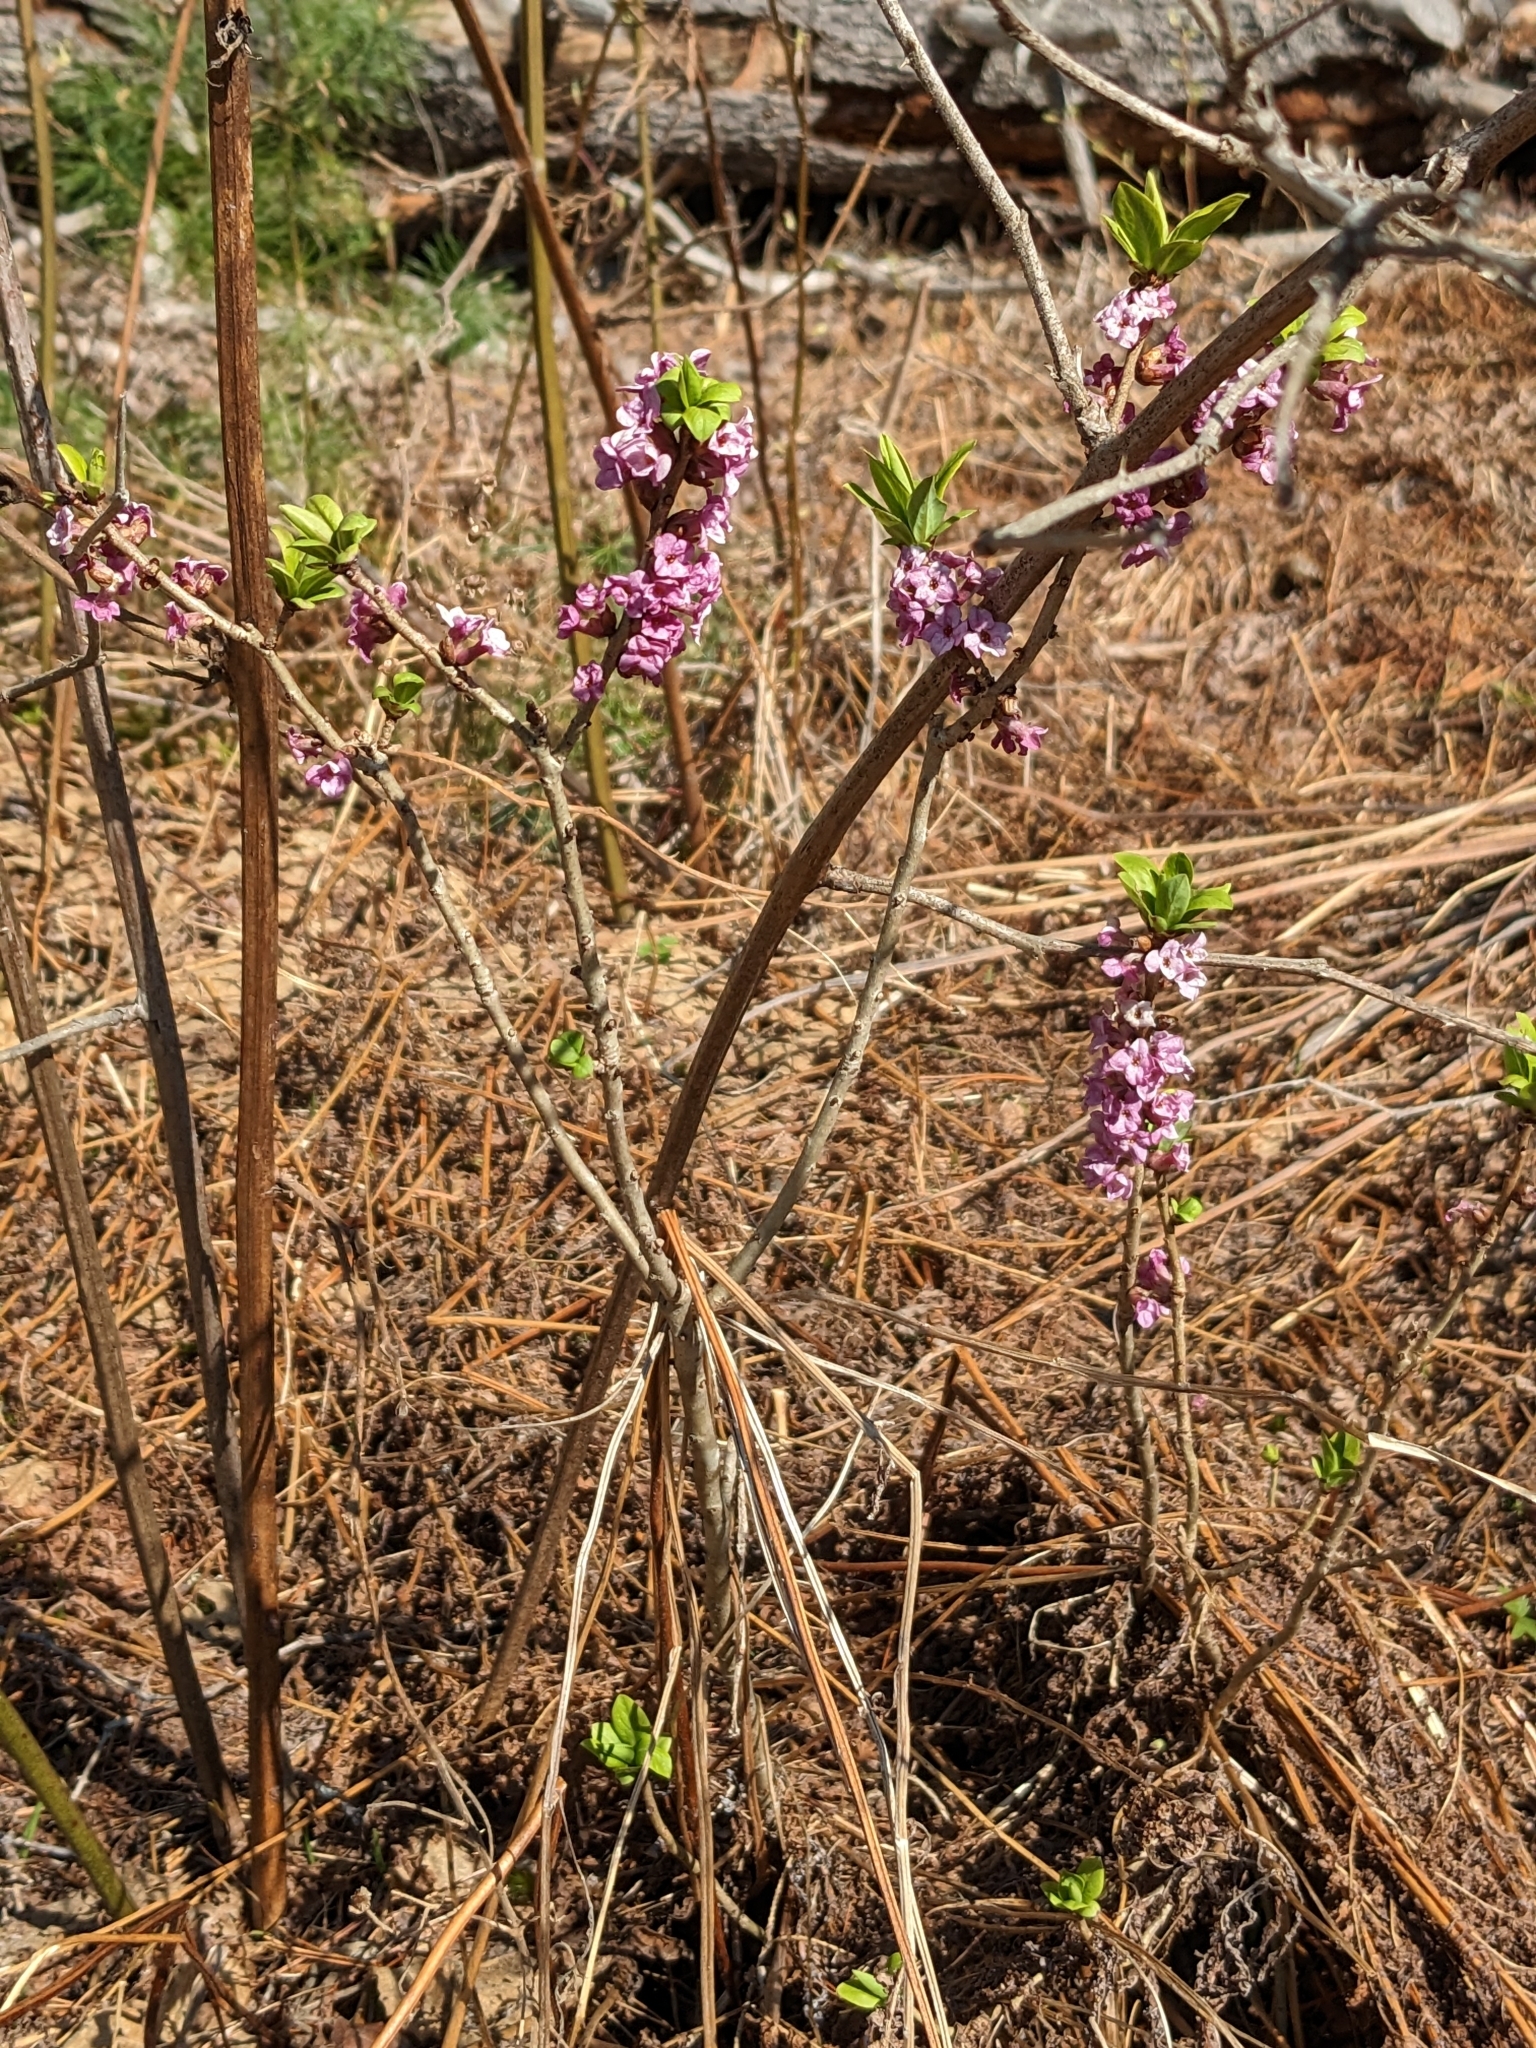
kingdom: Plantae
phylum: Tracheophyta
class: Magnoliopsida
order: Malvales
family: Thymelaeaceae
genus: Daphne
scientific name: Daphne mezereum
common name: Mezereon
